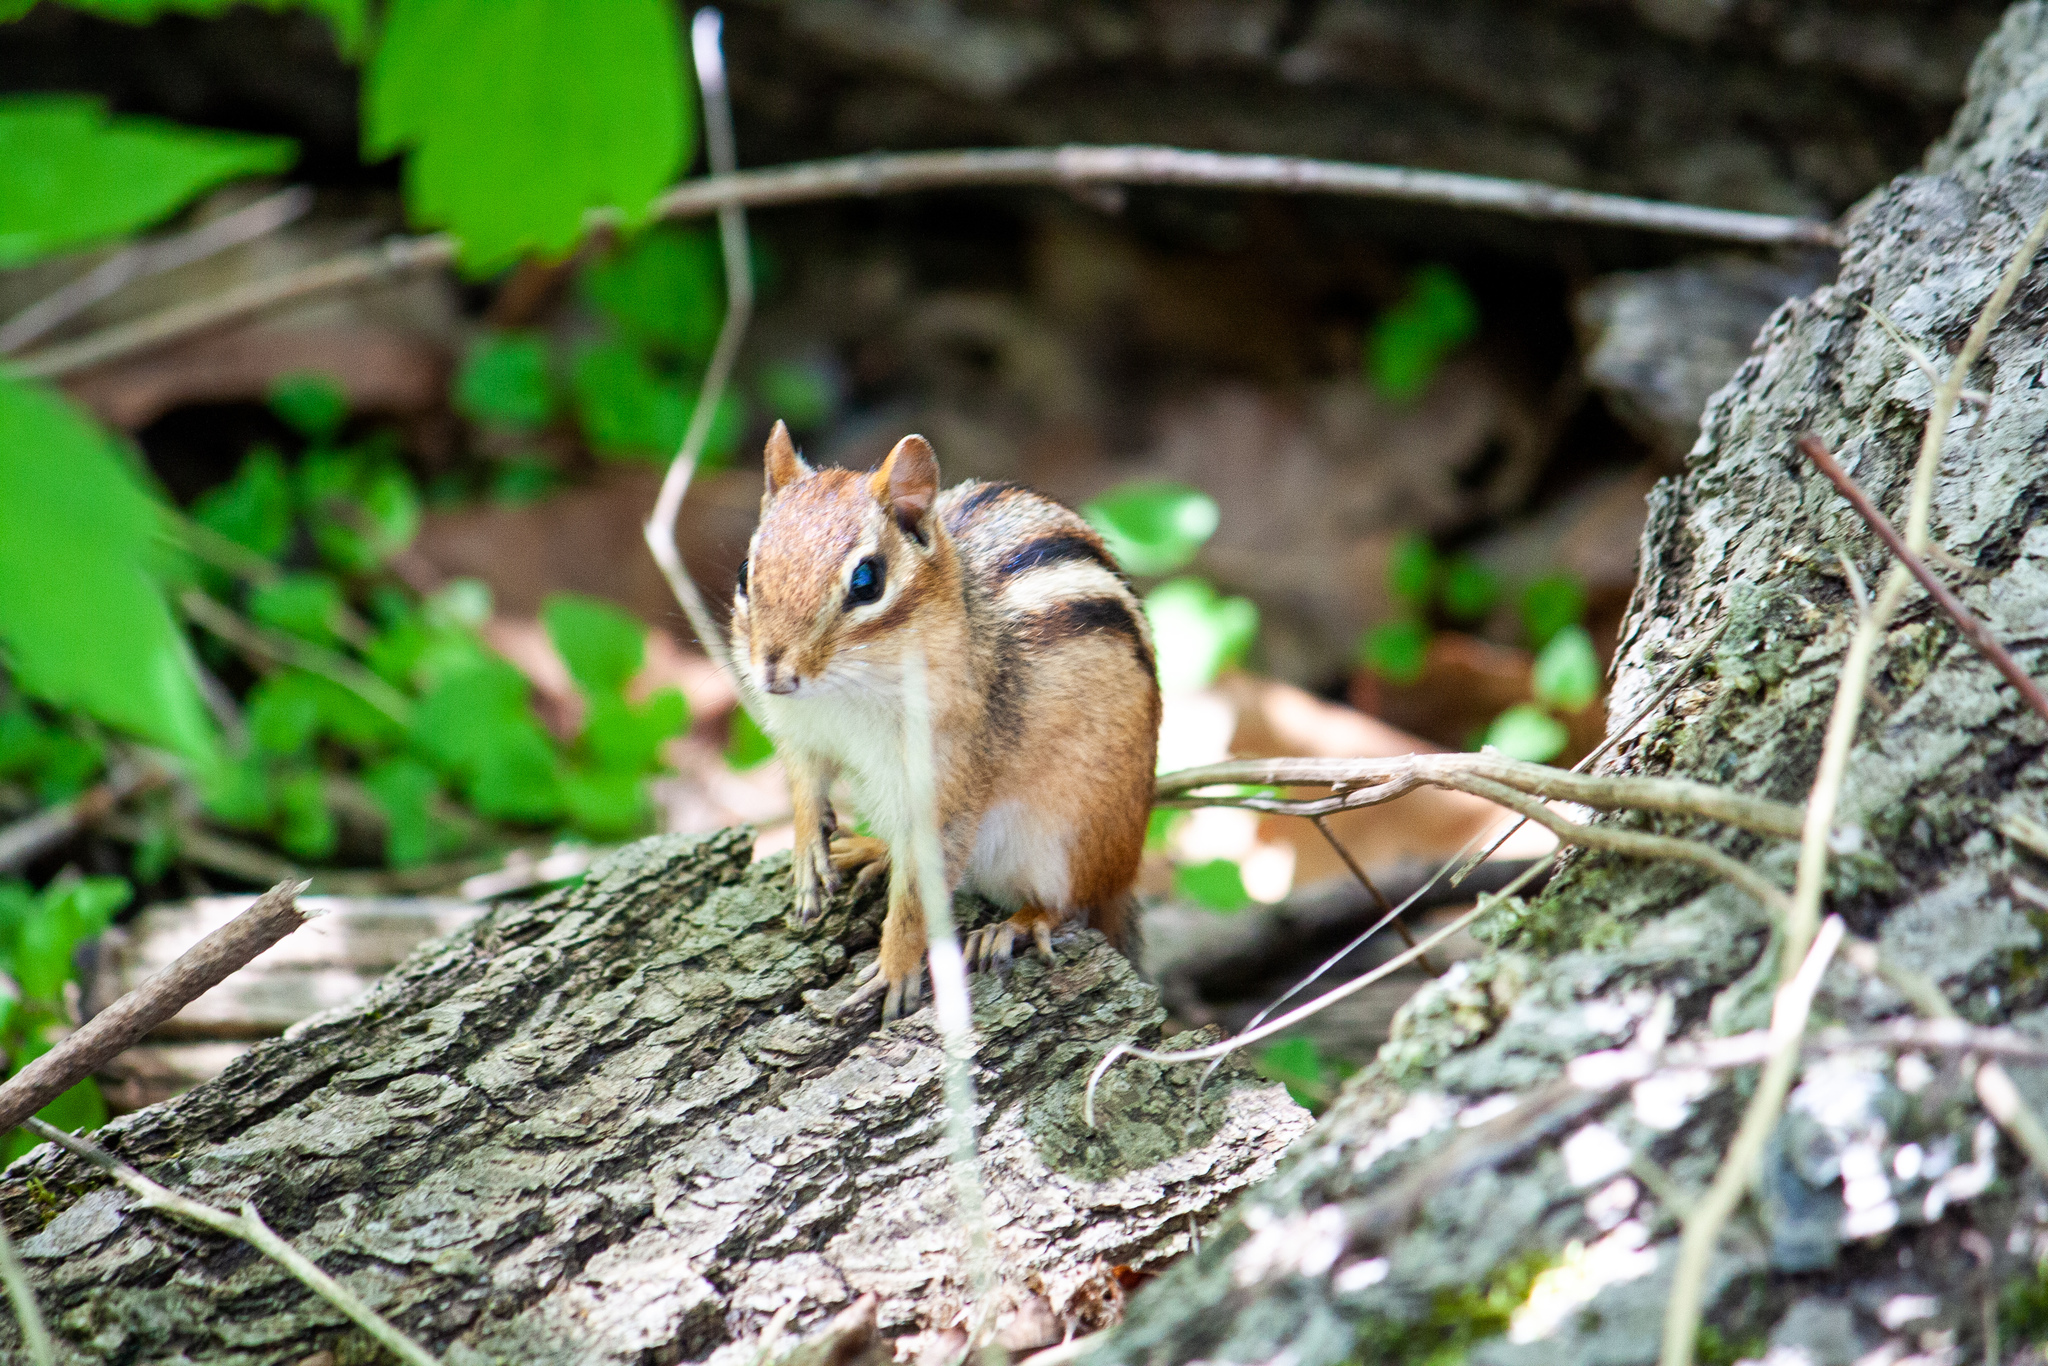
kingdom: Animalia
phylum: Chordata
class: Mammalia
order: Rodentia
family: Sciuridae
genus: Tamias
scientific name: Tamias striatus
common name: Eastern chipmunk
